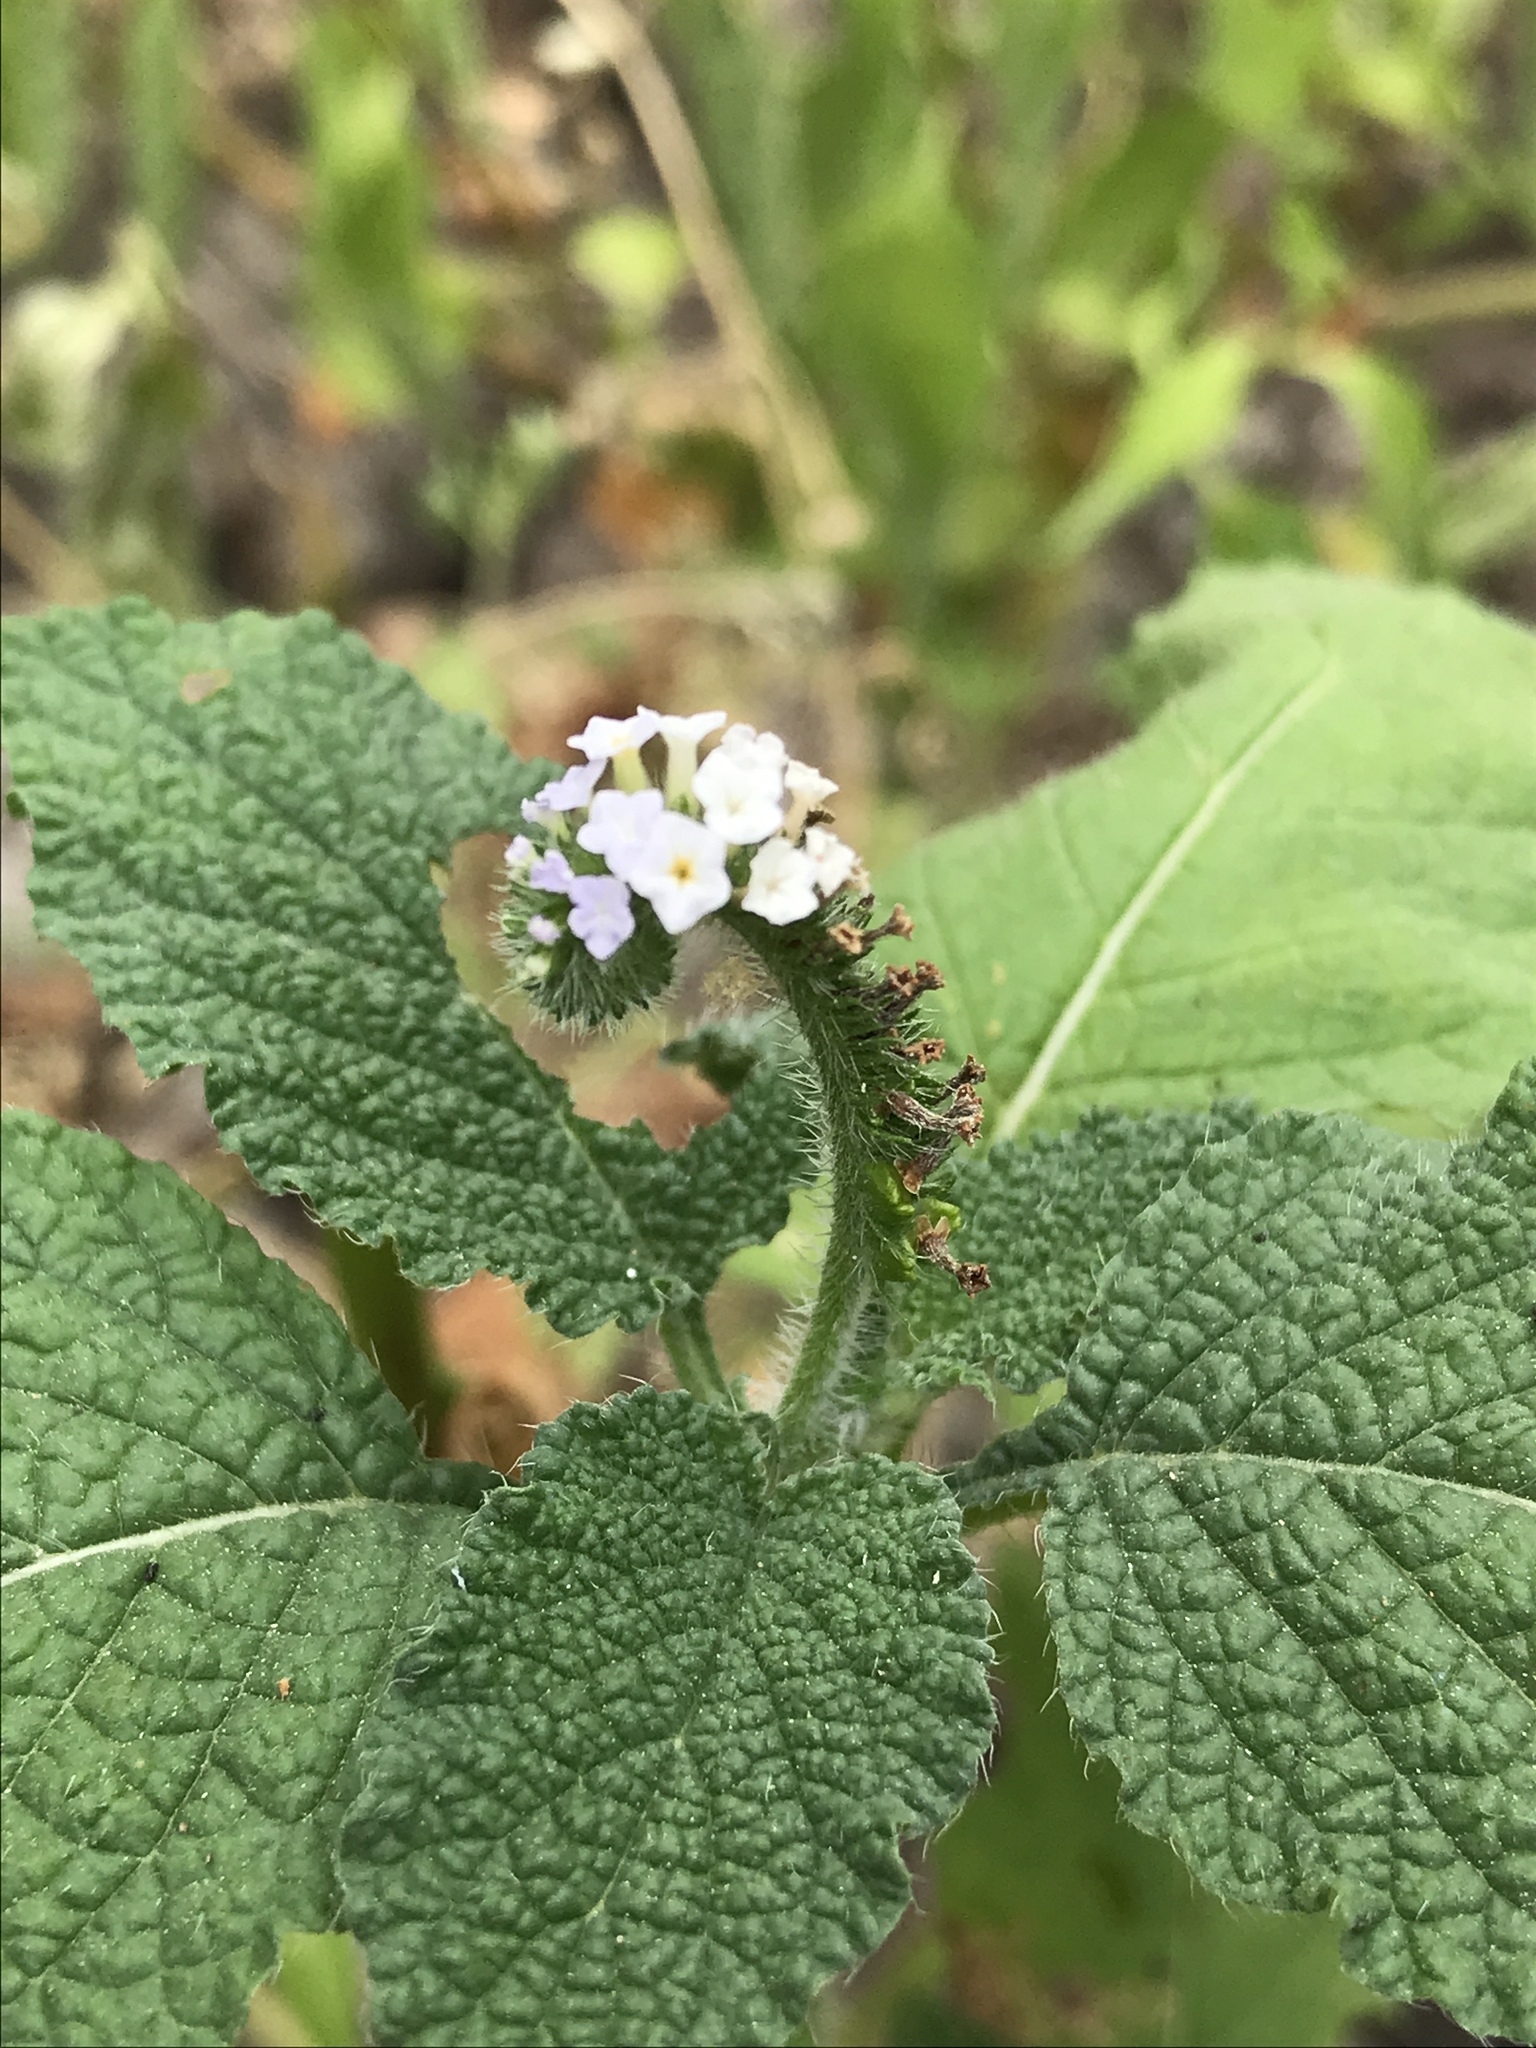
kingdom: Plantae
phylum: Tracheophyta
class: Magnoliopsida
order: Boraginales
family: Heliotropiaceae
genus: Heliotropium
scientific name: Heliotropium indicum
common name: Indian heliotrope
